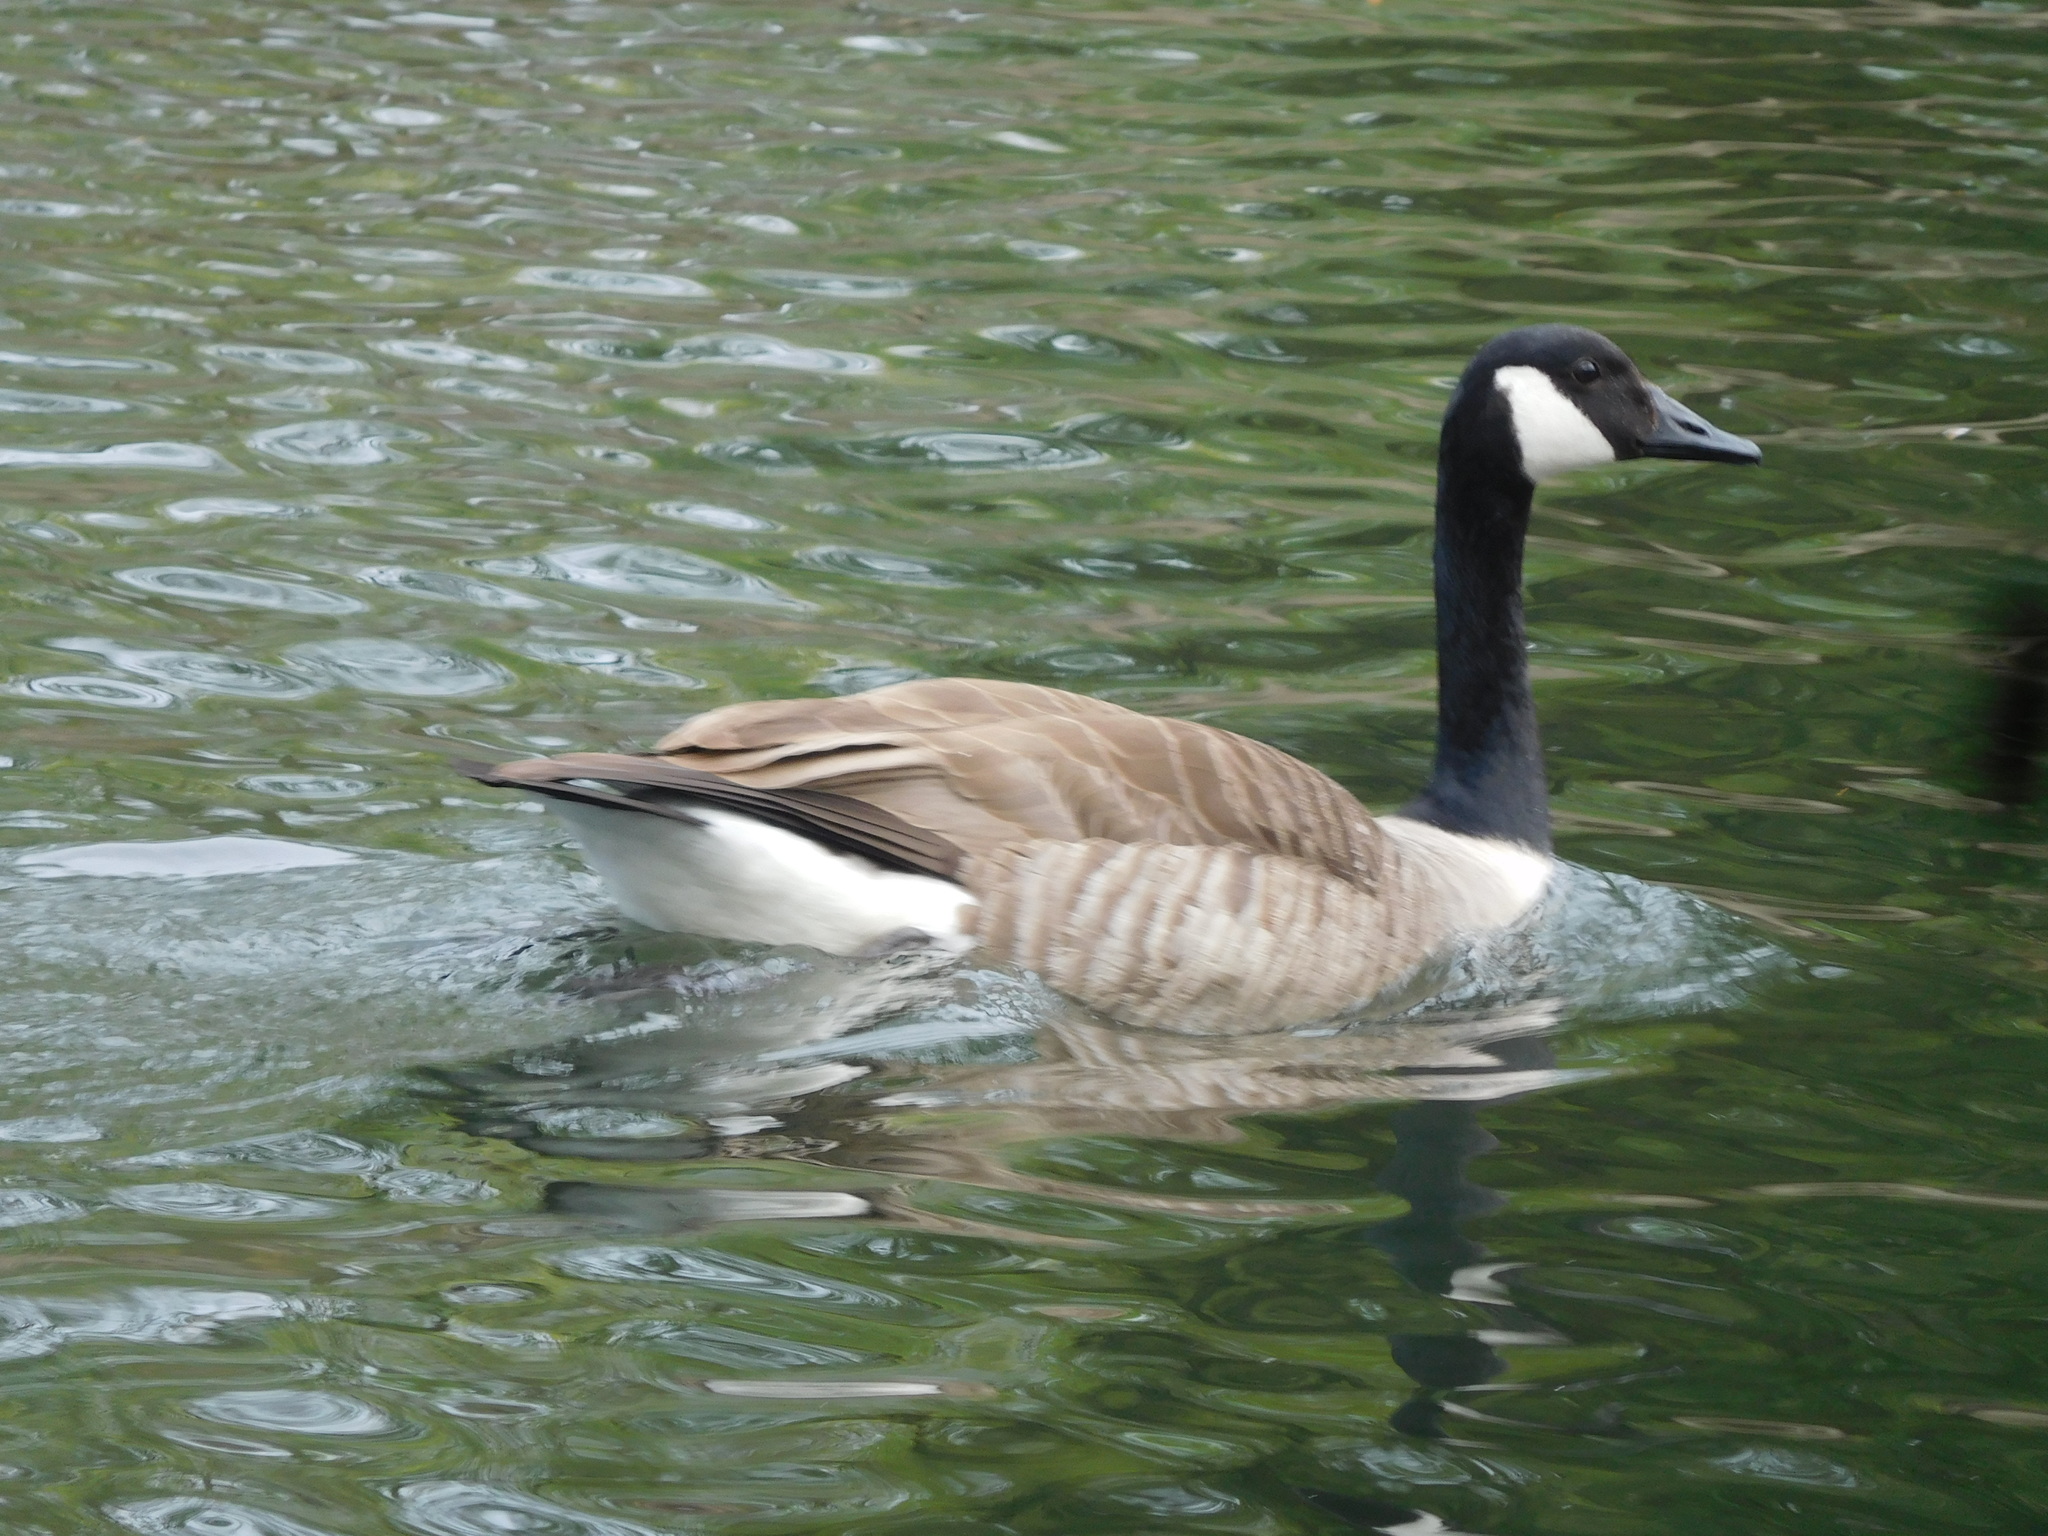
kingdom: Animalia
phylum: Chordata
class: Aves
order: Anseriformes
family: Anatidae
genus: Branta
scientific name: Branta canadensis
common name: Canada goose
